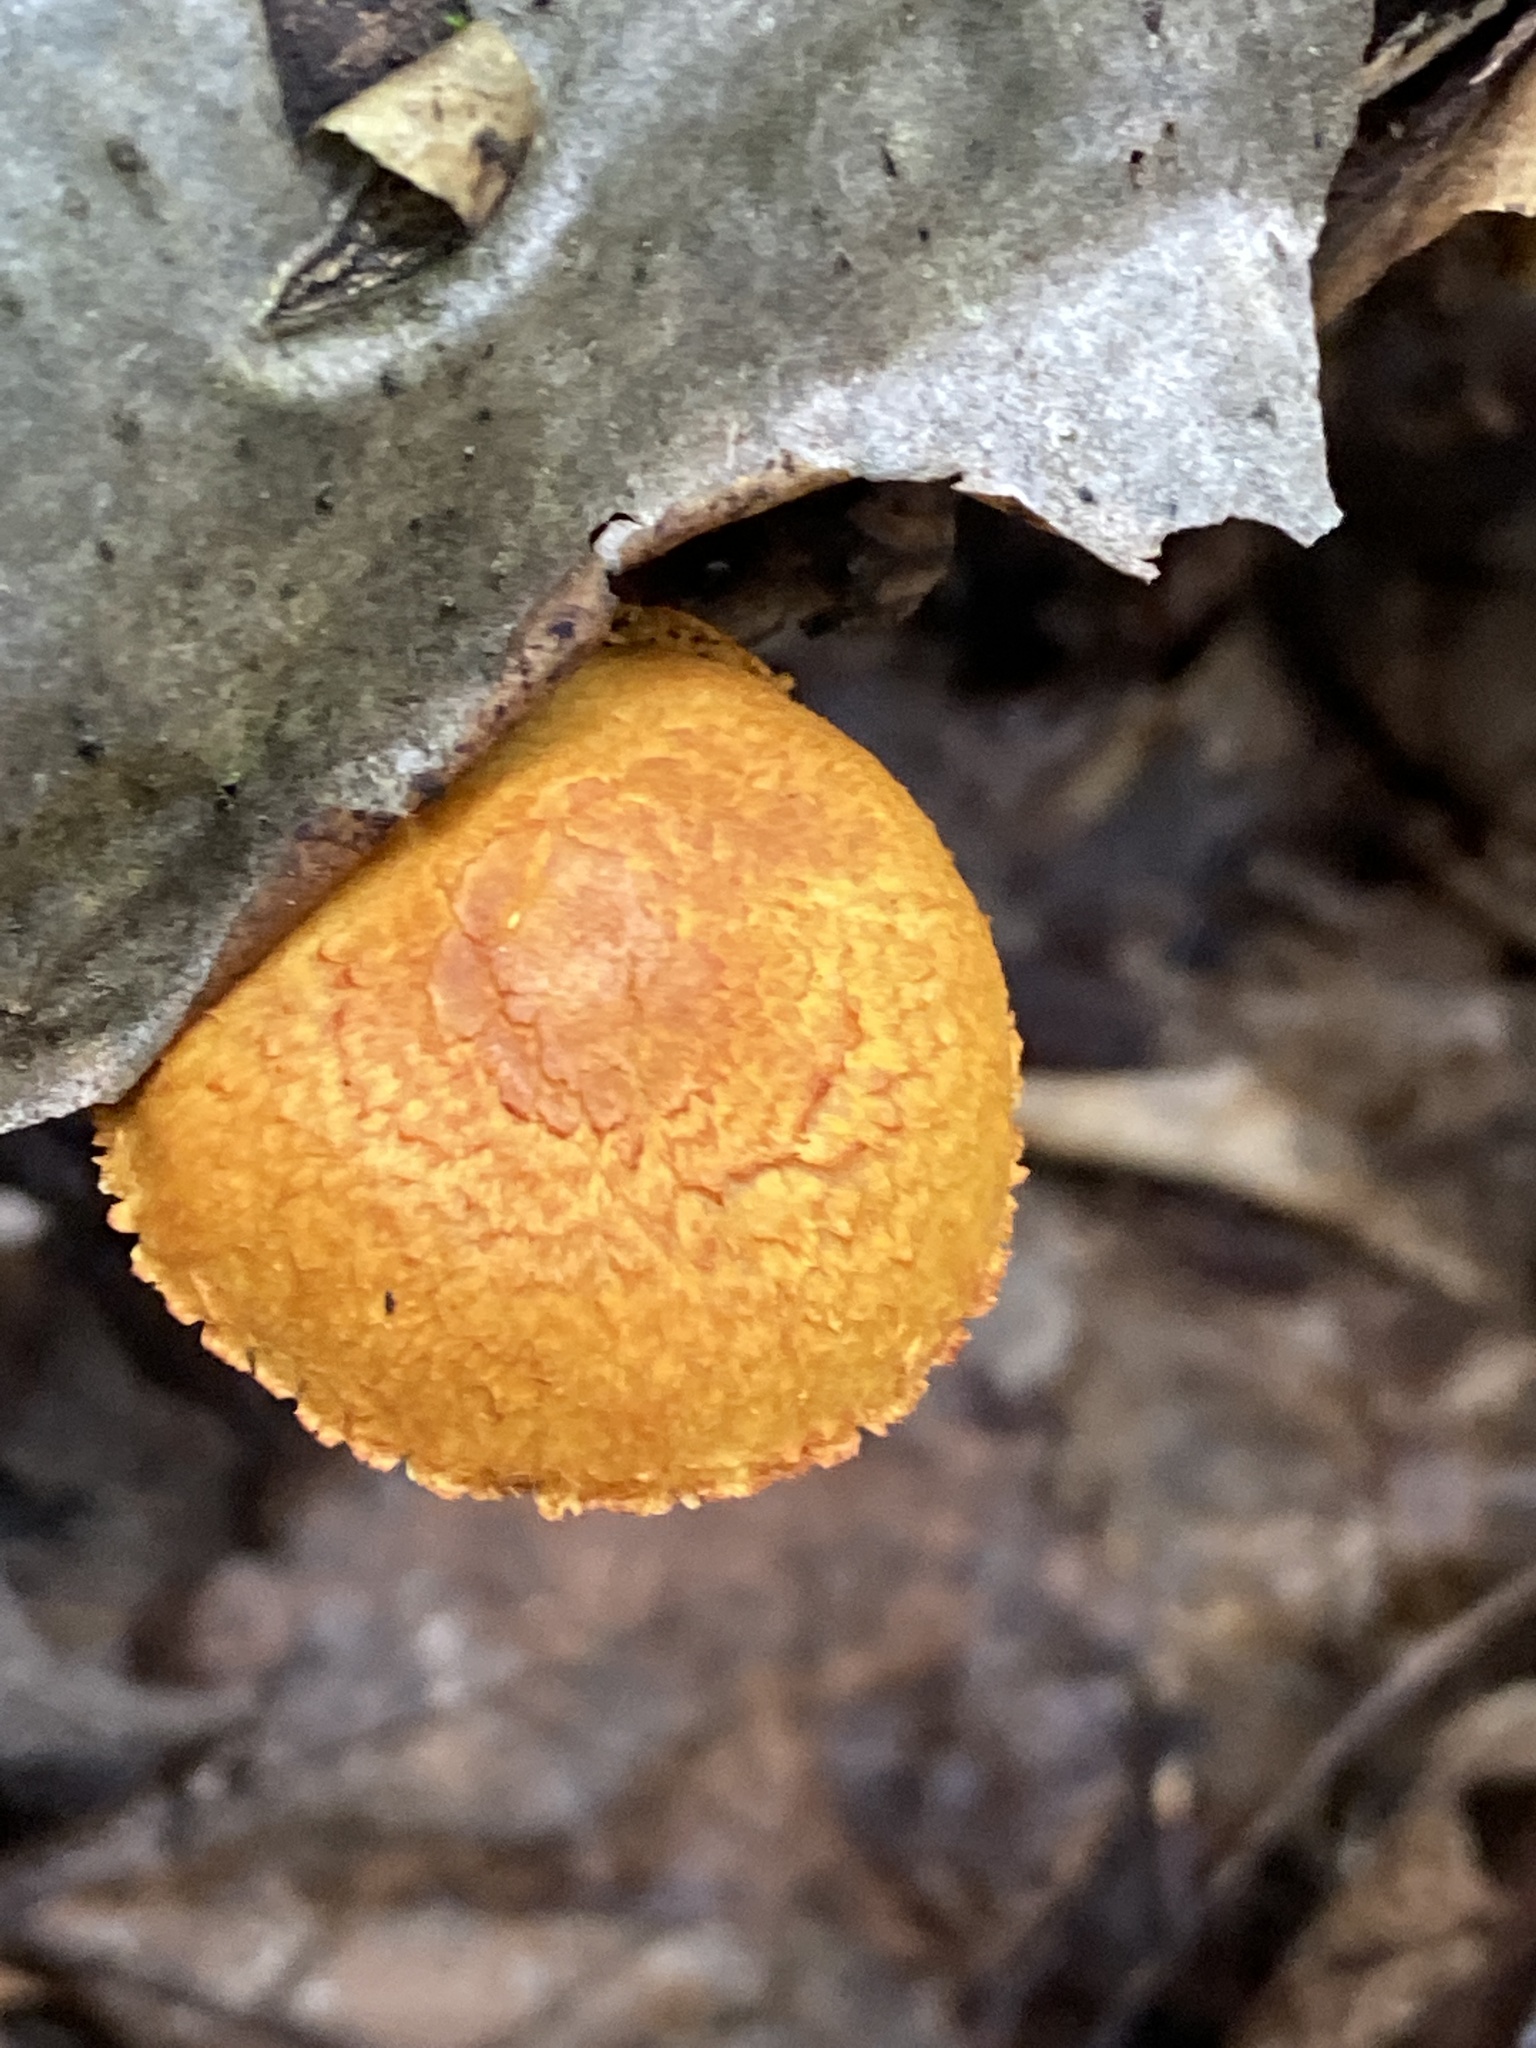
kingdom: Fungi
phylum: Basidiomycota
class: Agaricomycetes
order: Agaricales
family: Strophariaceae
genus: Pholiota
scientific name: Pholiota tuberculosa
